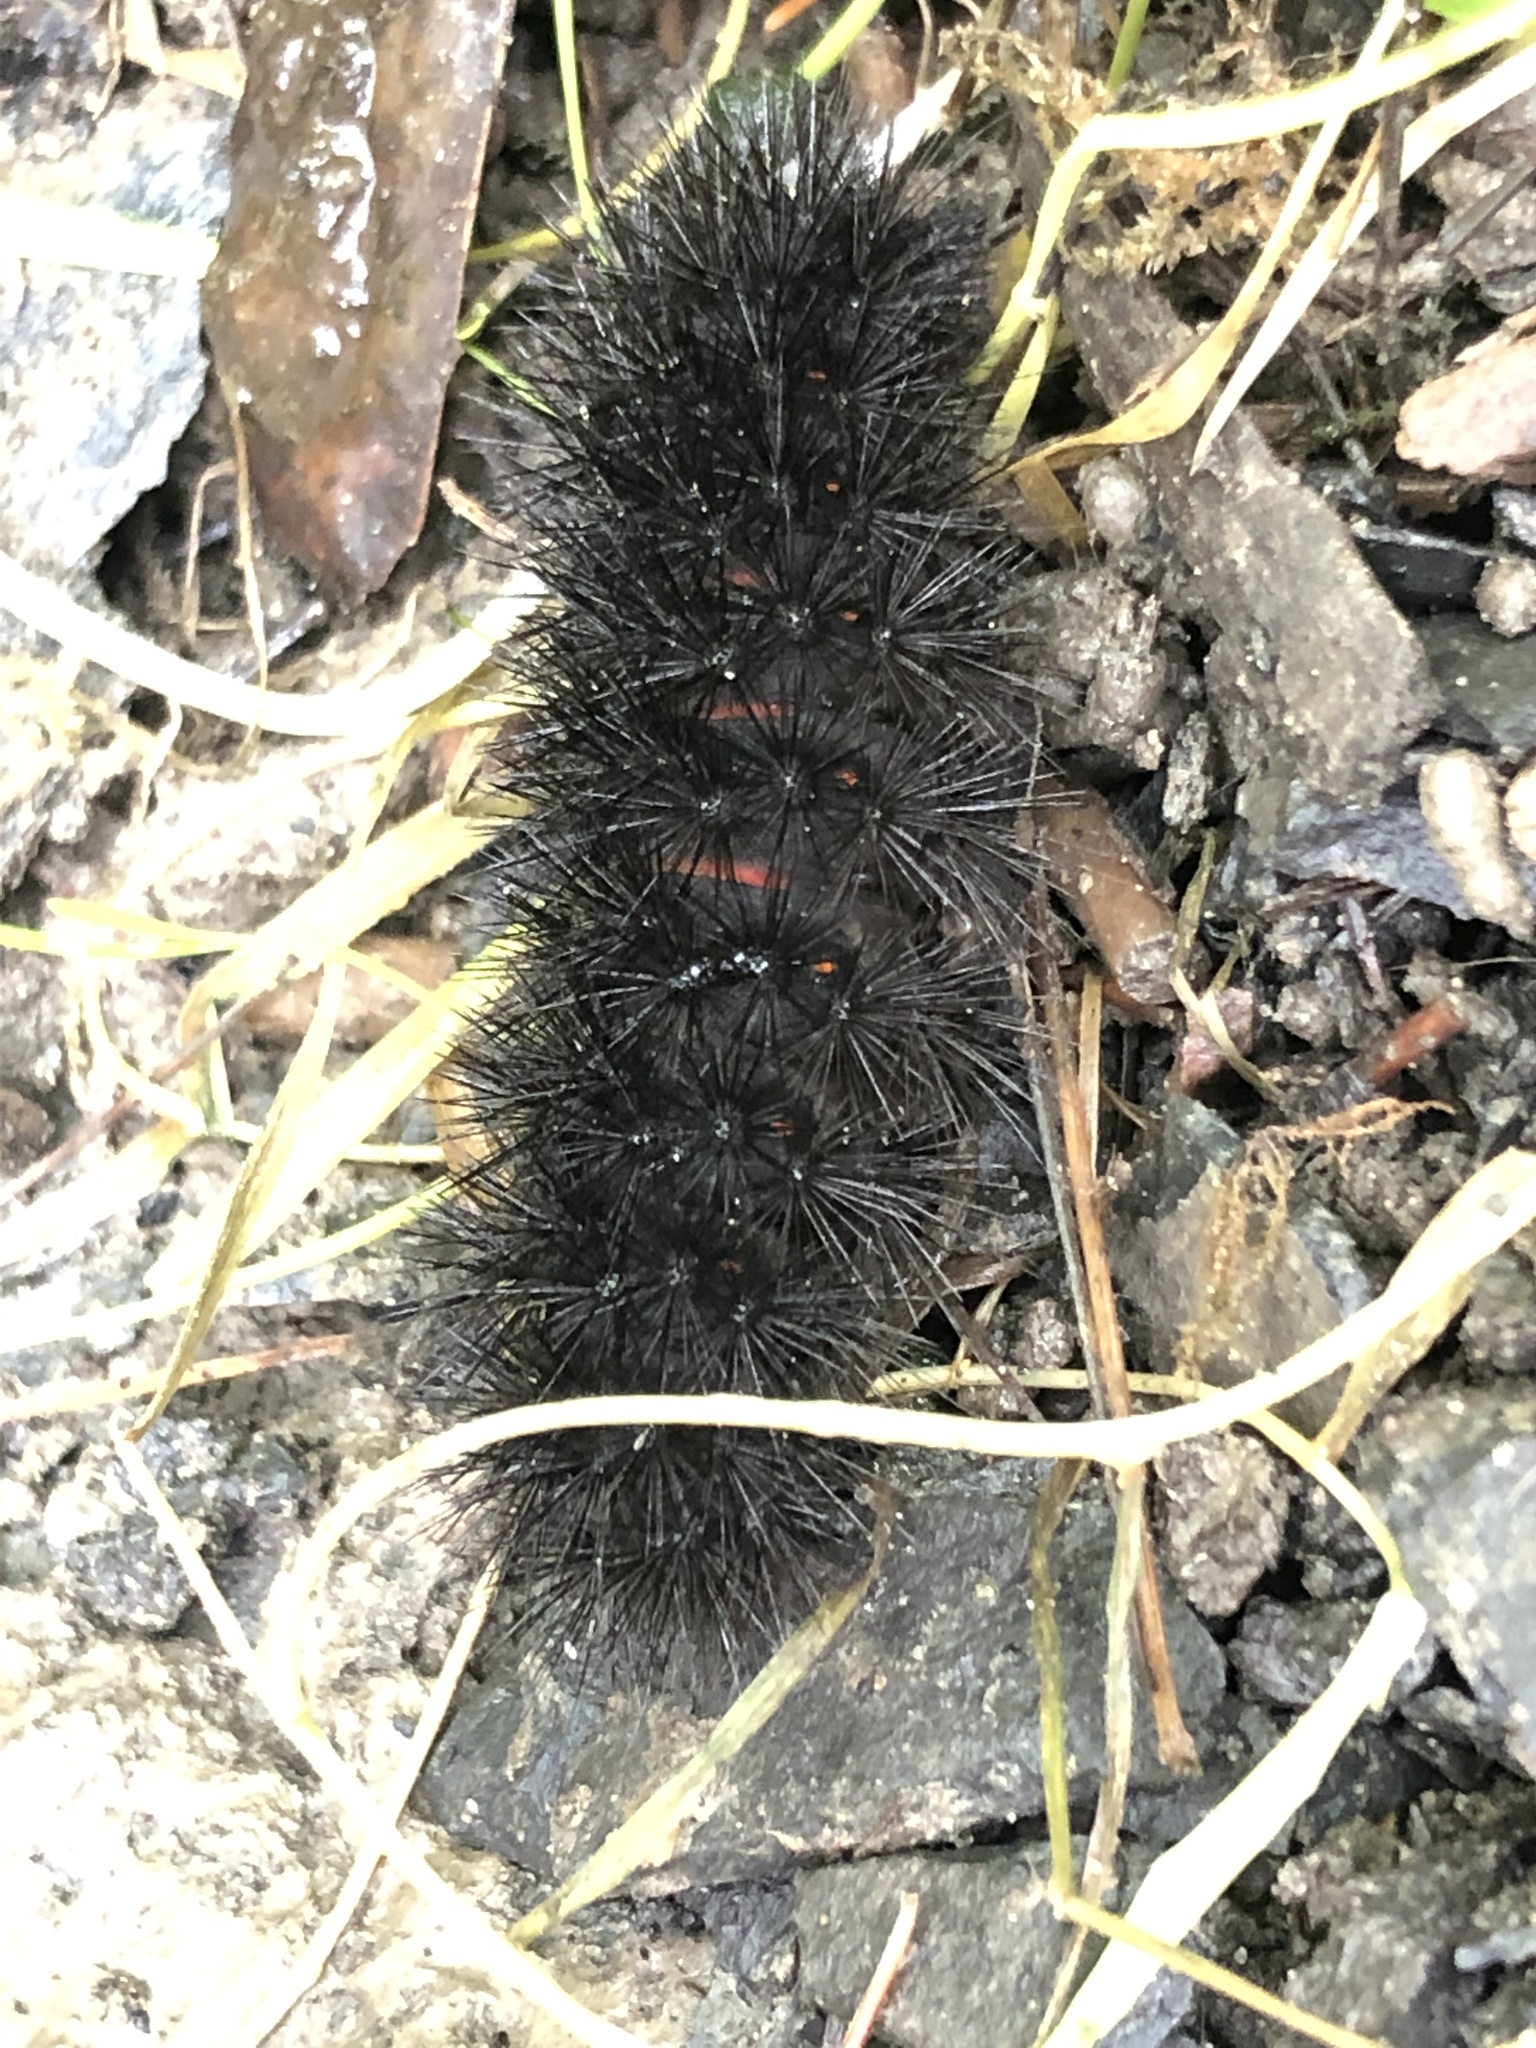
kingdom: Animalia
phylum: Arthropoda
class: Insecta
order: Lepidoptera
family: Erebidae
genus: Hypercompe
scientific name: Hypercompe scribonia
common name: Giant leopard moth
